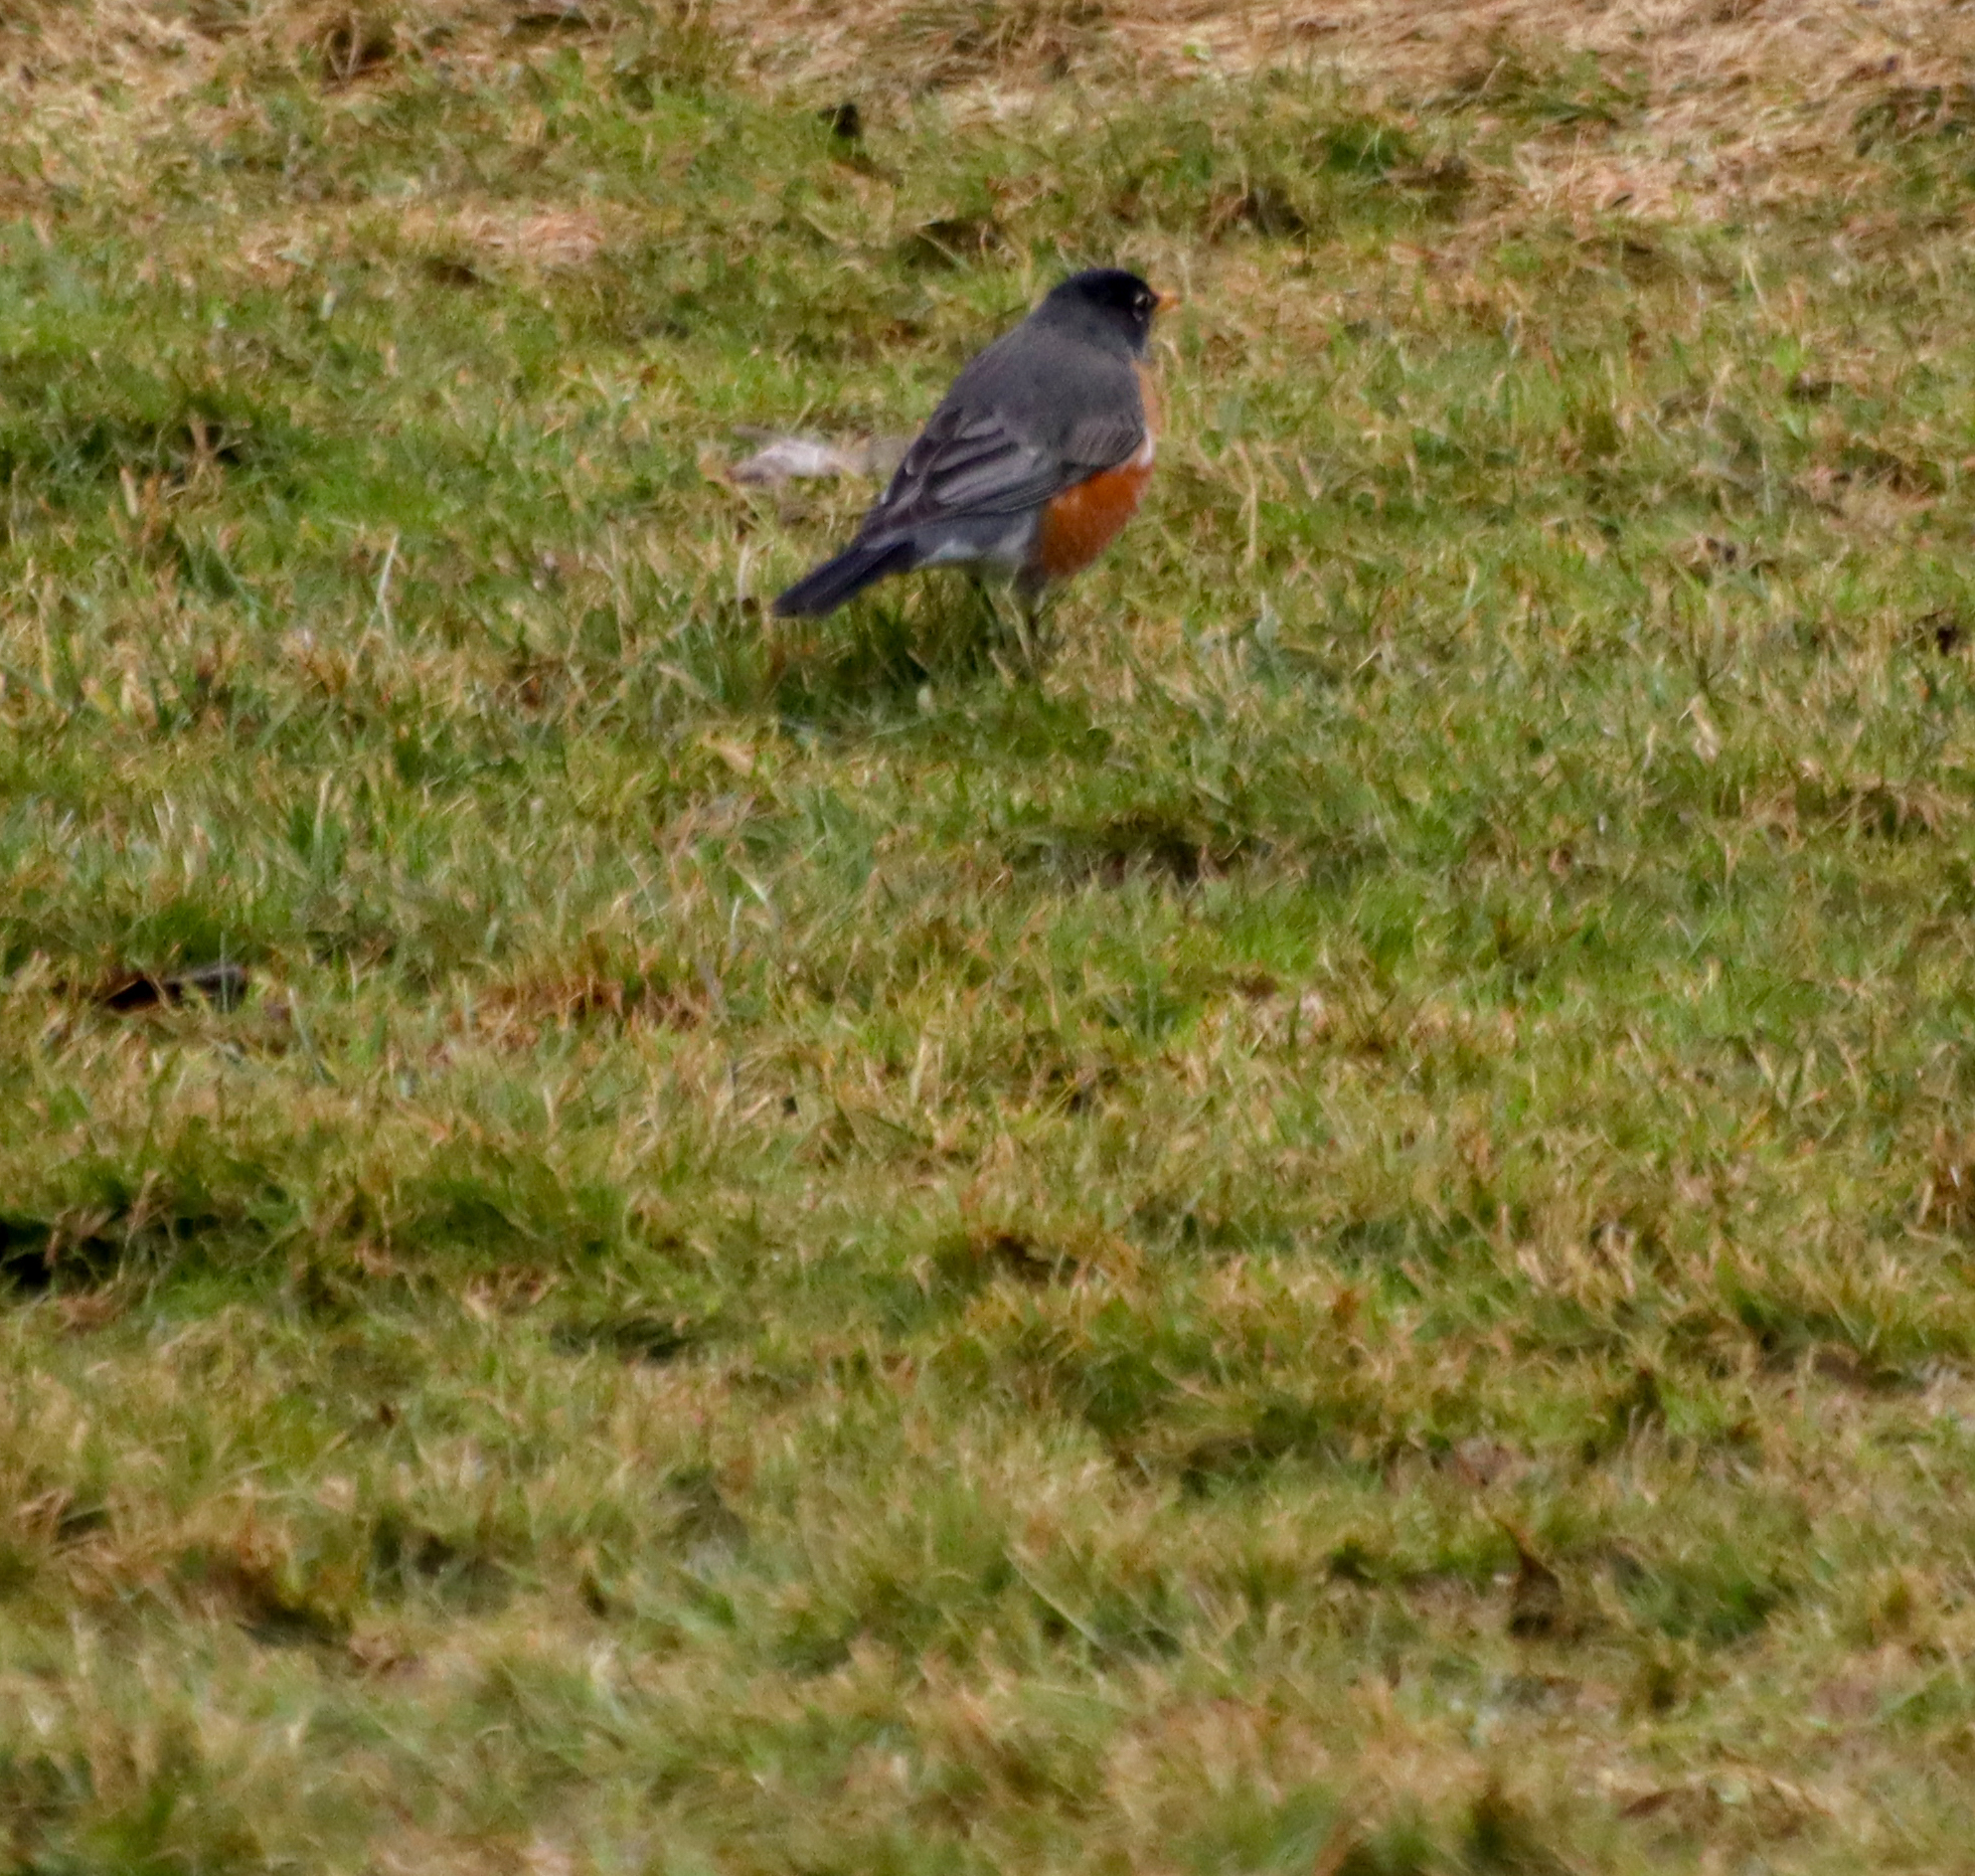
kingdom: Animalia
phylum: Chordata
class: Aves
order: Passeriformes
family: Turdidae
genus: Turdus
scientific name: Turdus migratorius
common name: American robin
